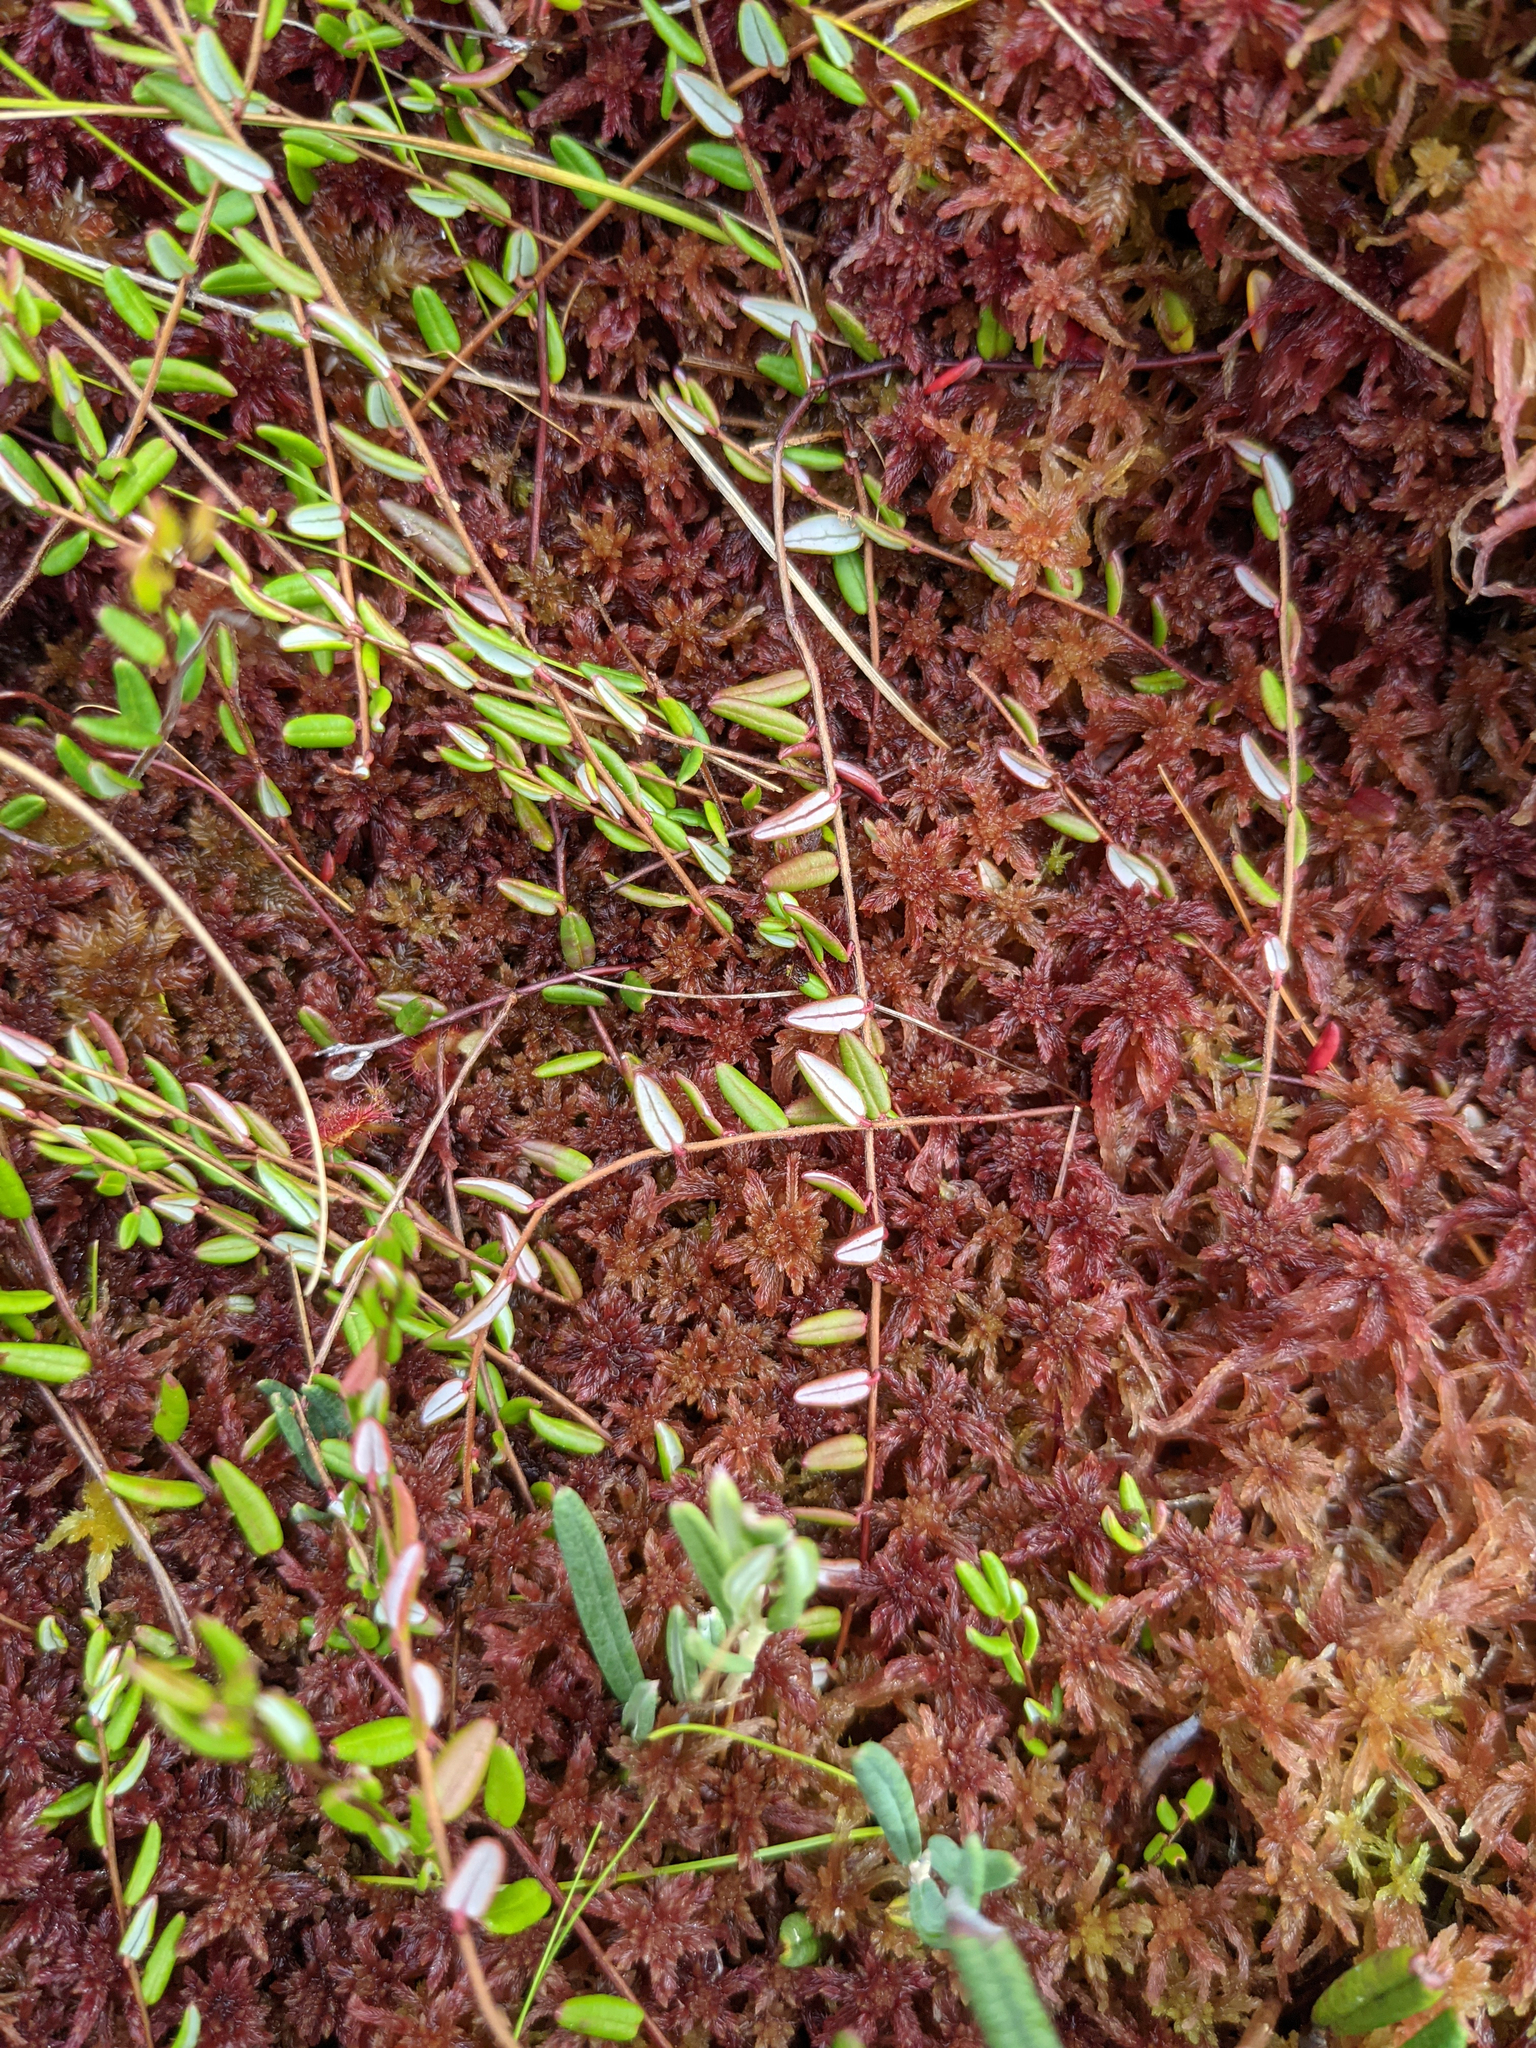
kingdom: Plantae
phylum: Tracheophyta
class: Magnoliopsida
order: Ericales
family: Ericaceae
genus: Vaccinium
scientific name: Vaccinium oxycoccos
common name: Cranberry
